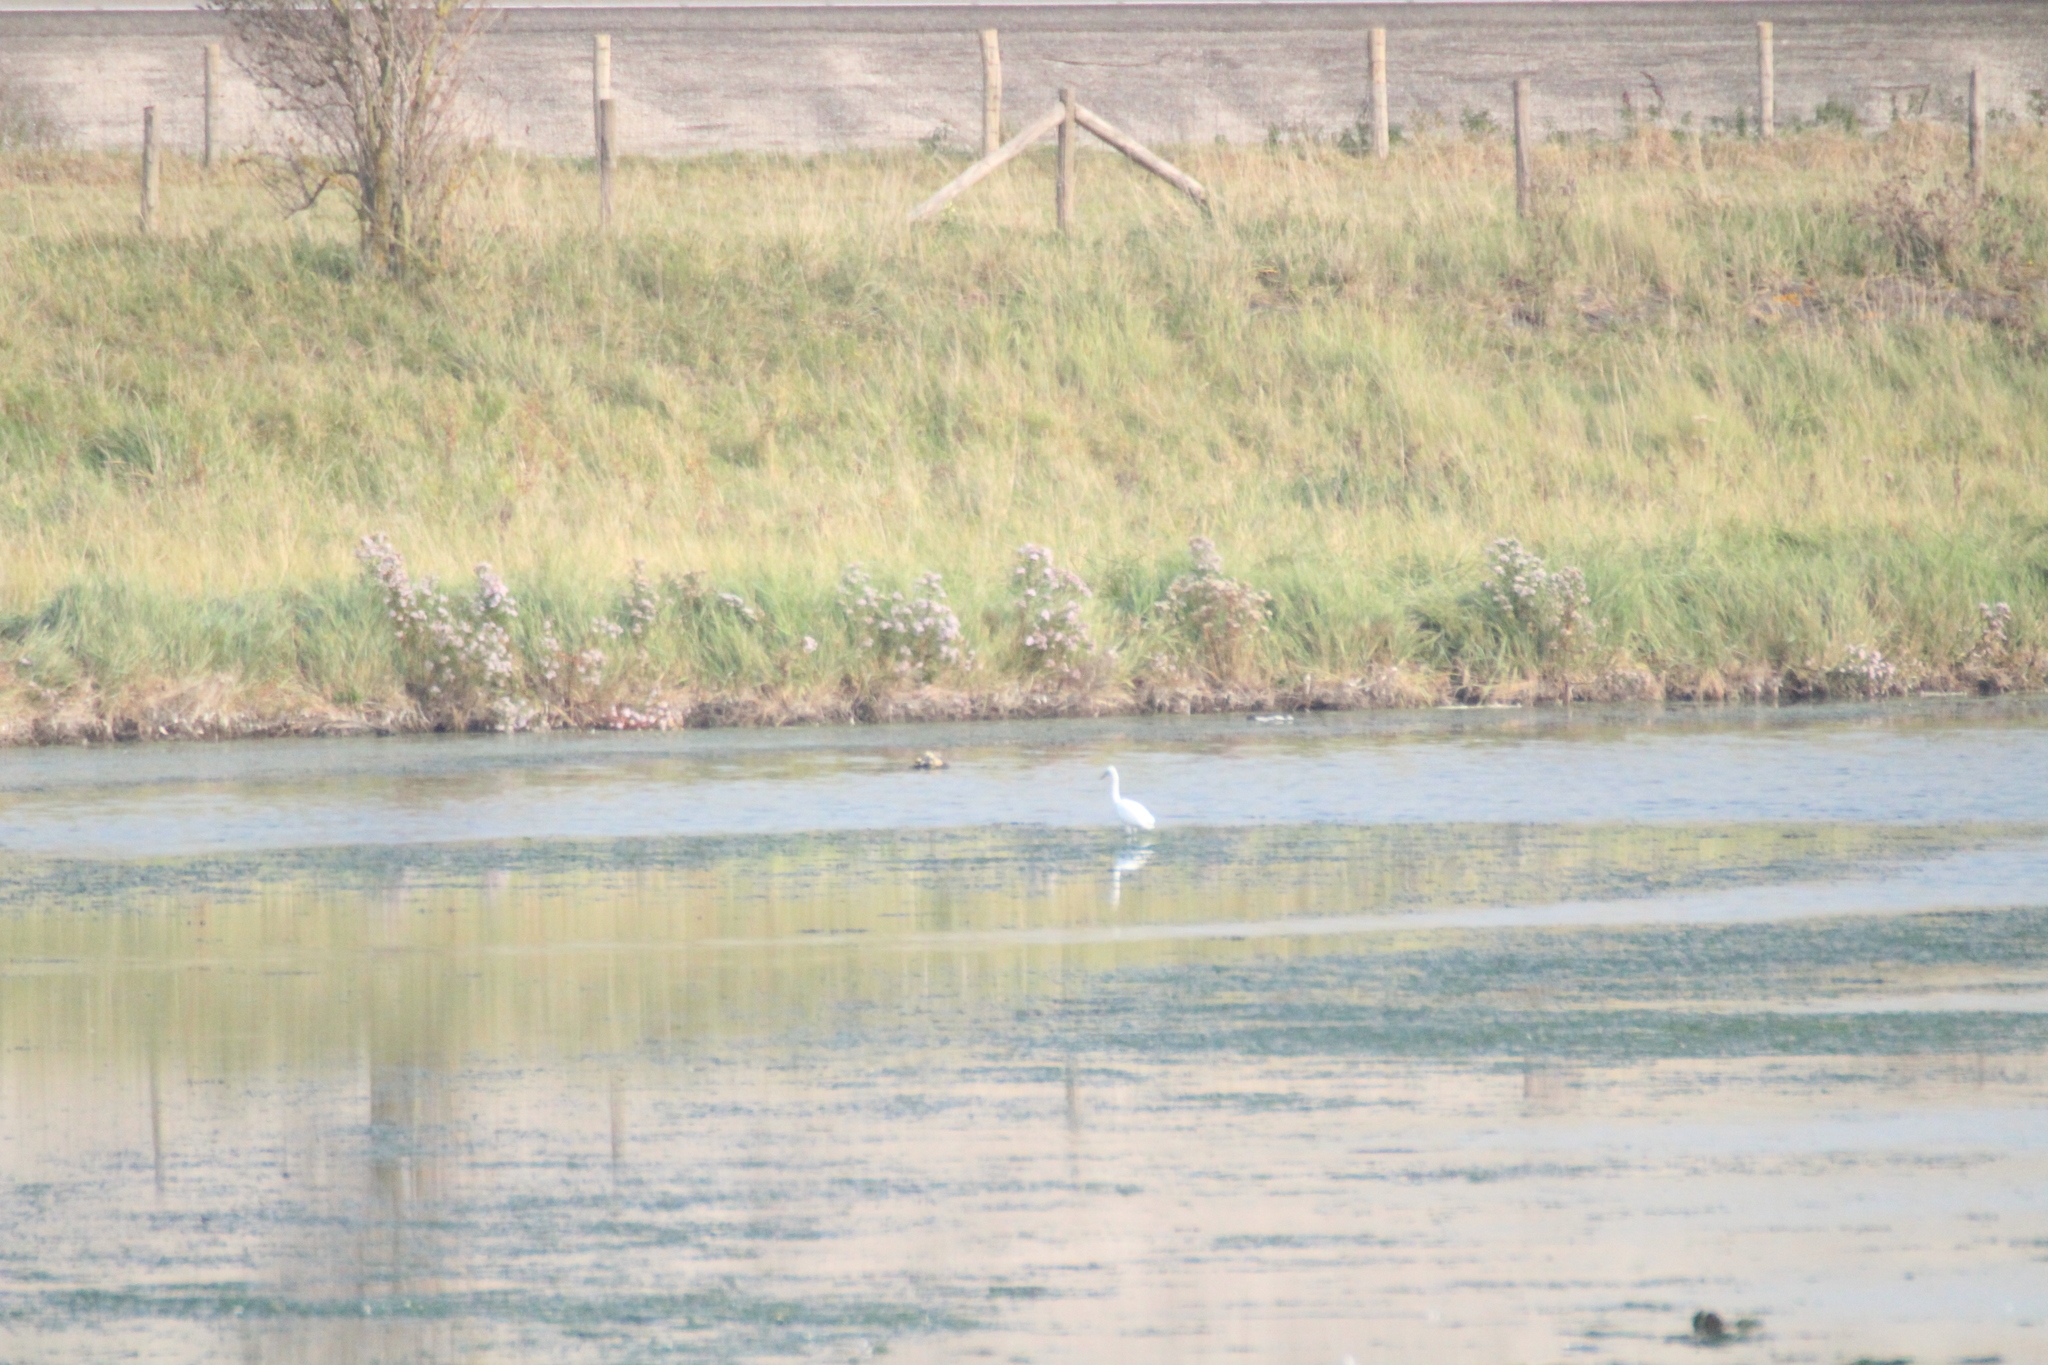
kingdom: Animalia
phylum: Chordata
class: Aves
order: Pelecaniformes
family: Ardeidae
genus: Egretta
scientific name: Egretta garzetta
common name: Little egret
